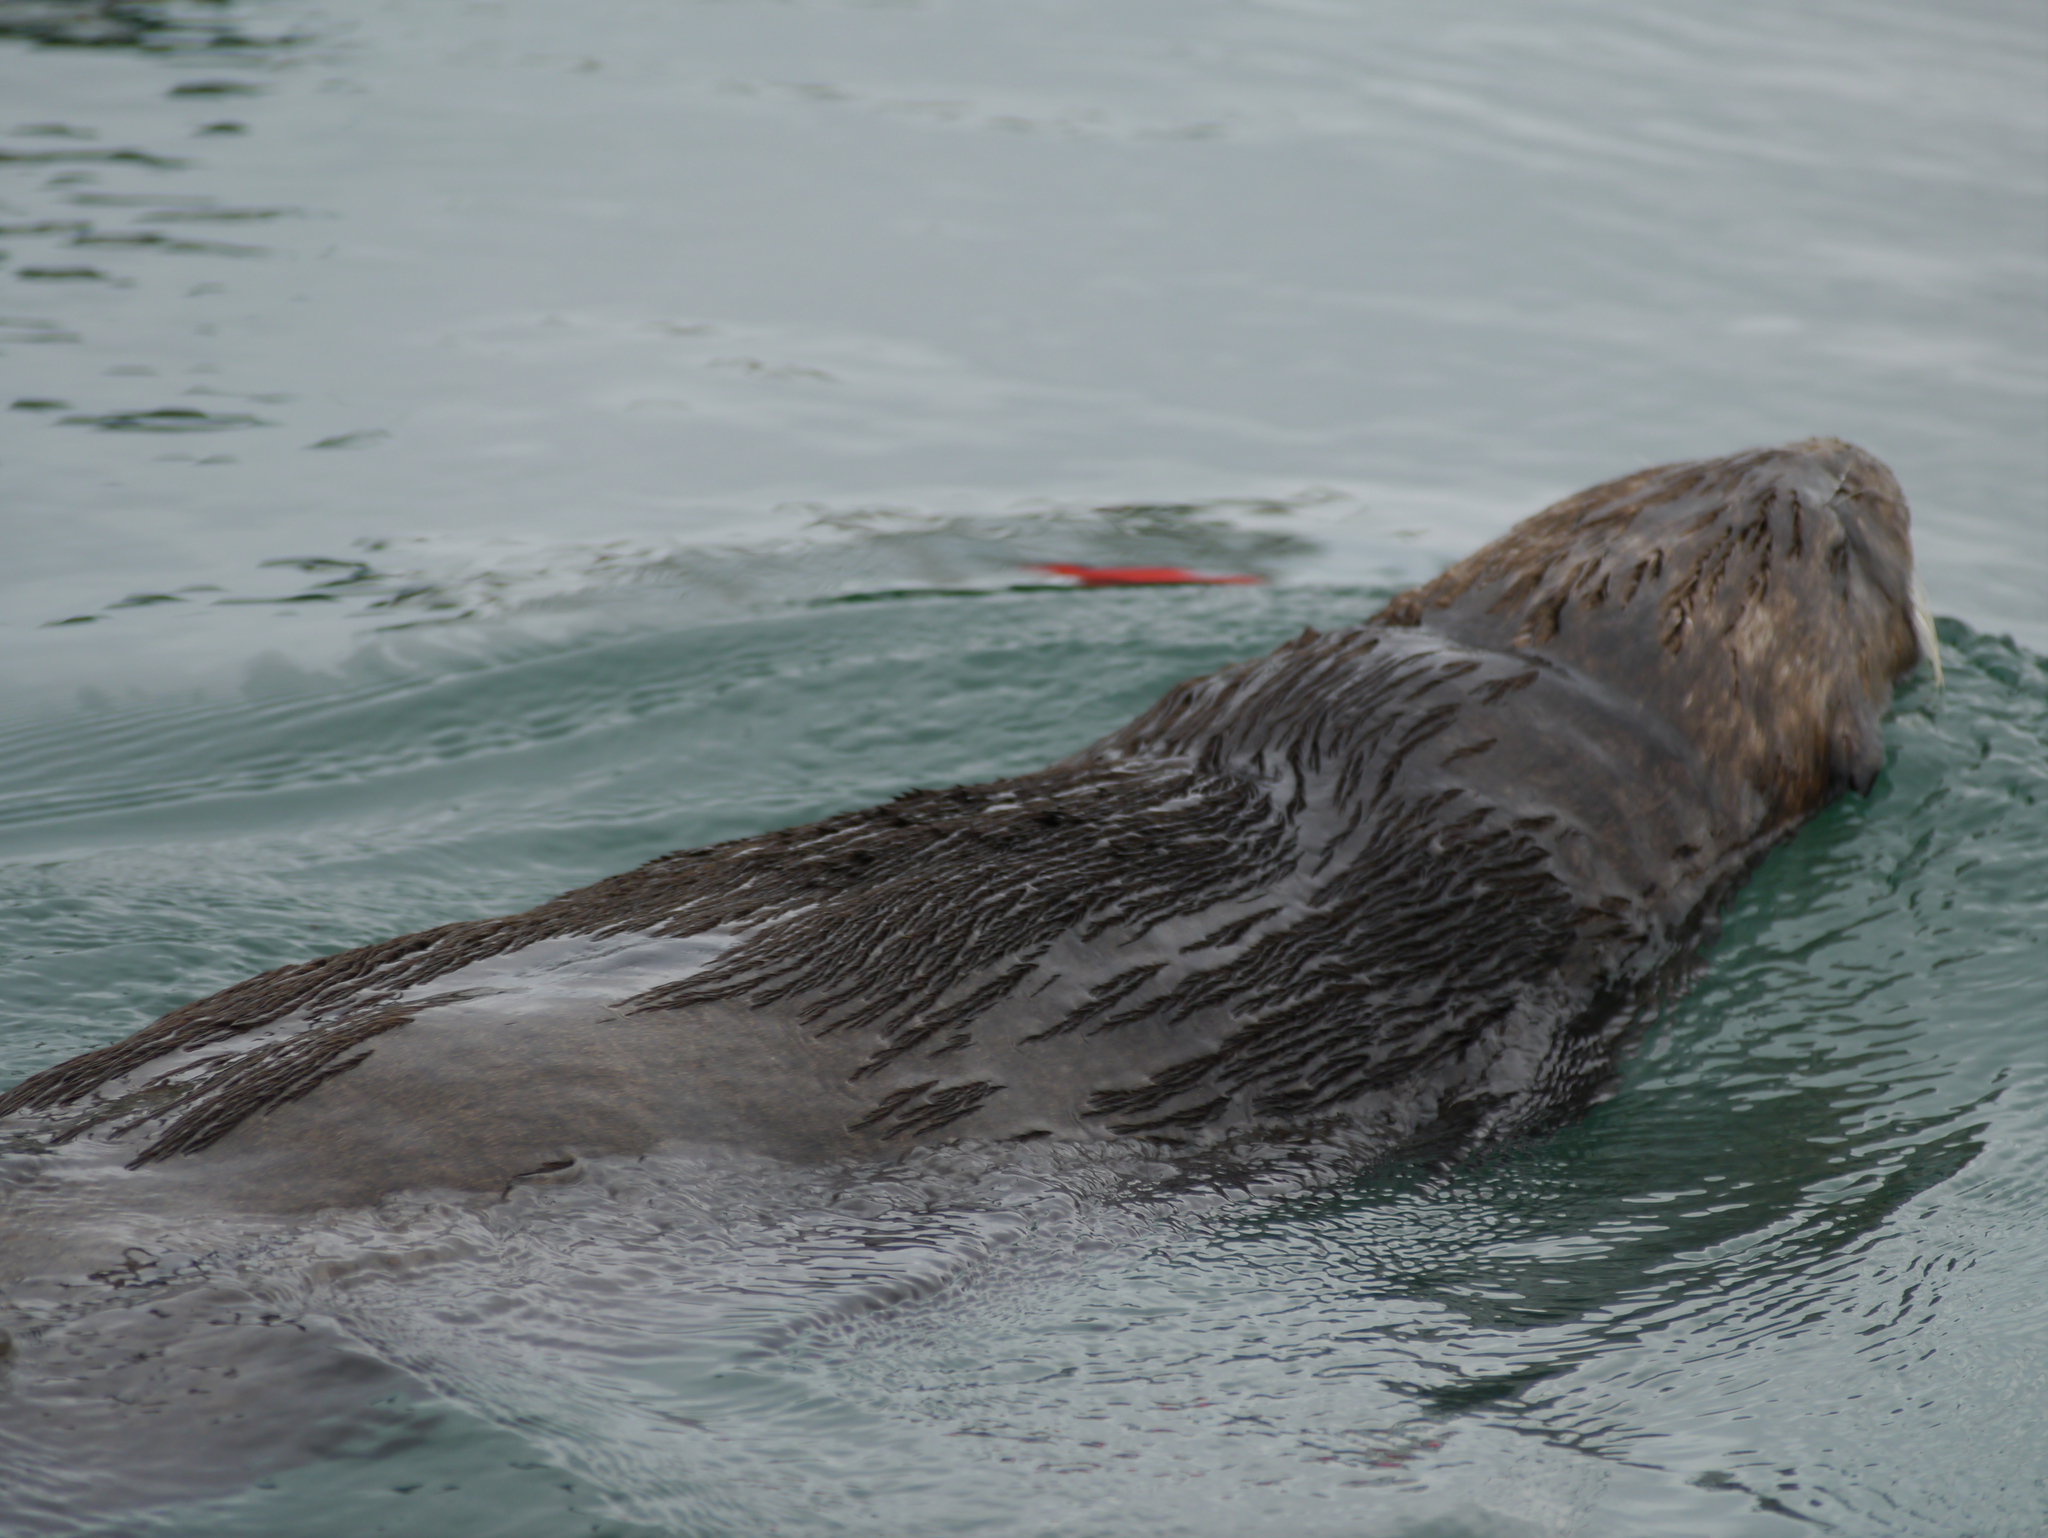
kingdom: Animalia
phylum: Chordata
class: Mammalia
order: Carnivora
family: Mustelidae
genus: Enhydra
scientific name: Enhydra lutris
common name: Sea otter
